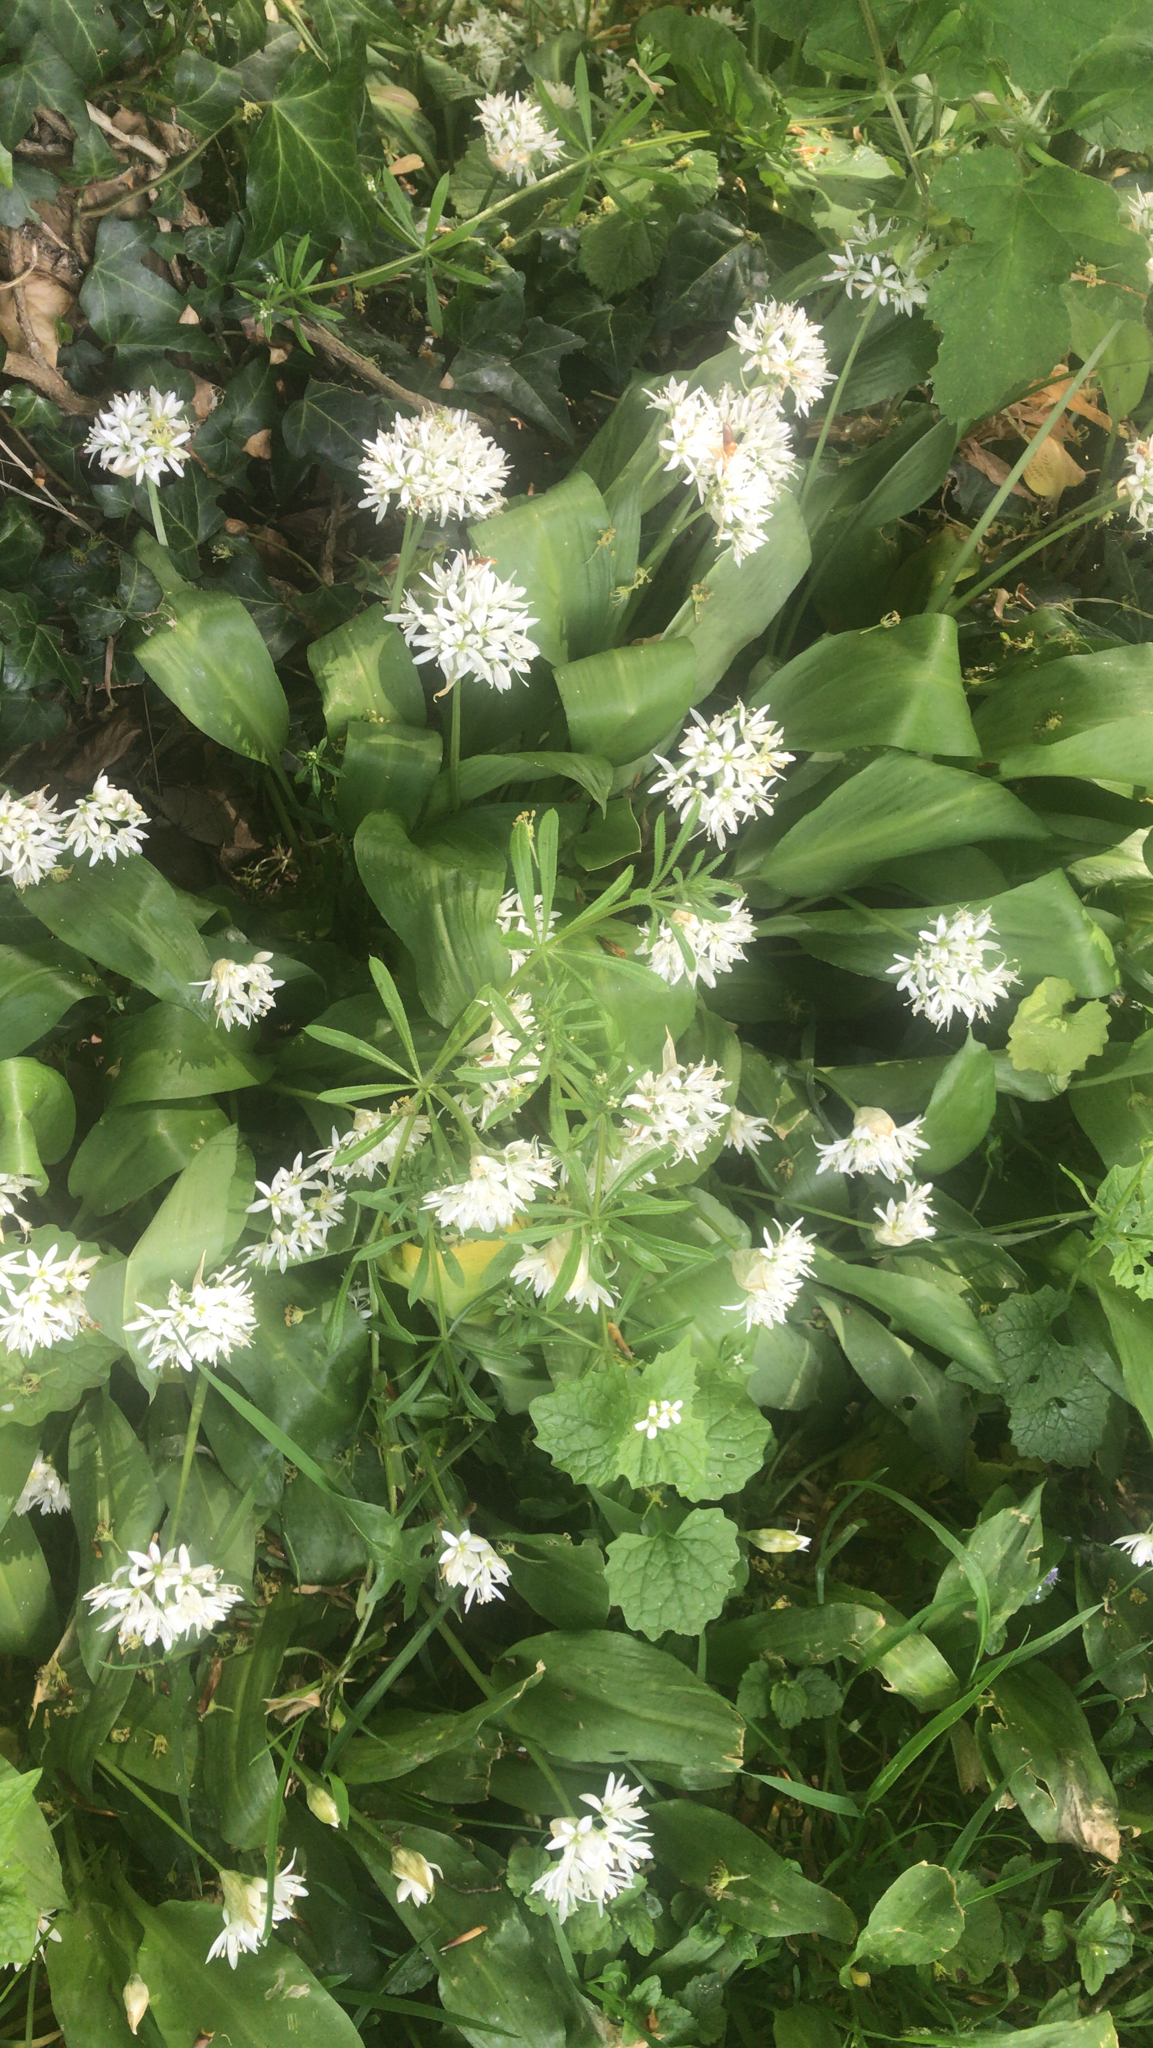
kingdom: Plantae
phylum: Tracheophyta
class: Liliopsida
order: Asparagales
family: Amaryllidaceae
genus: Allium
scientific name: Allium ursinum
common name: Ramsons
